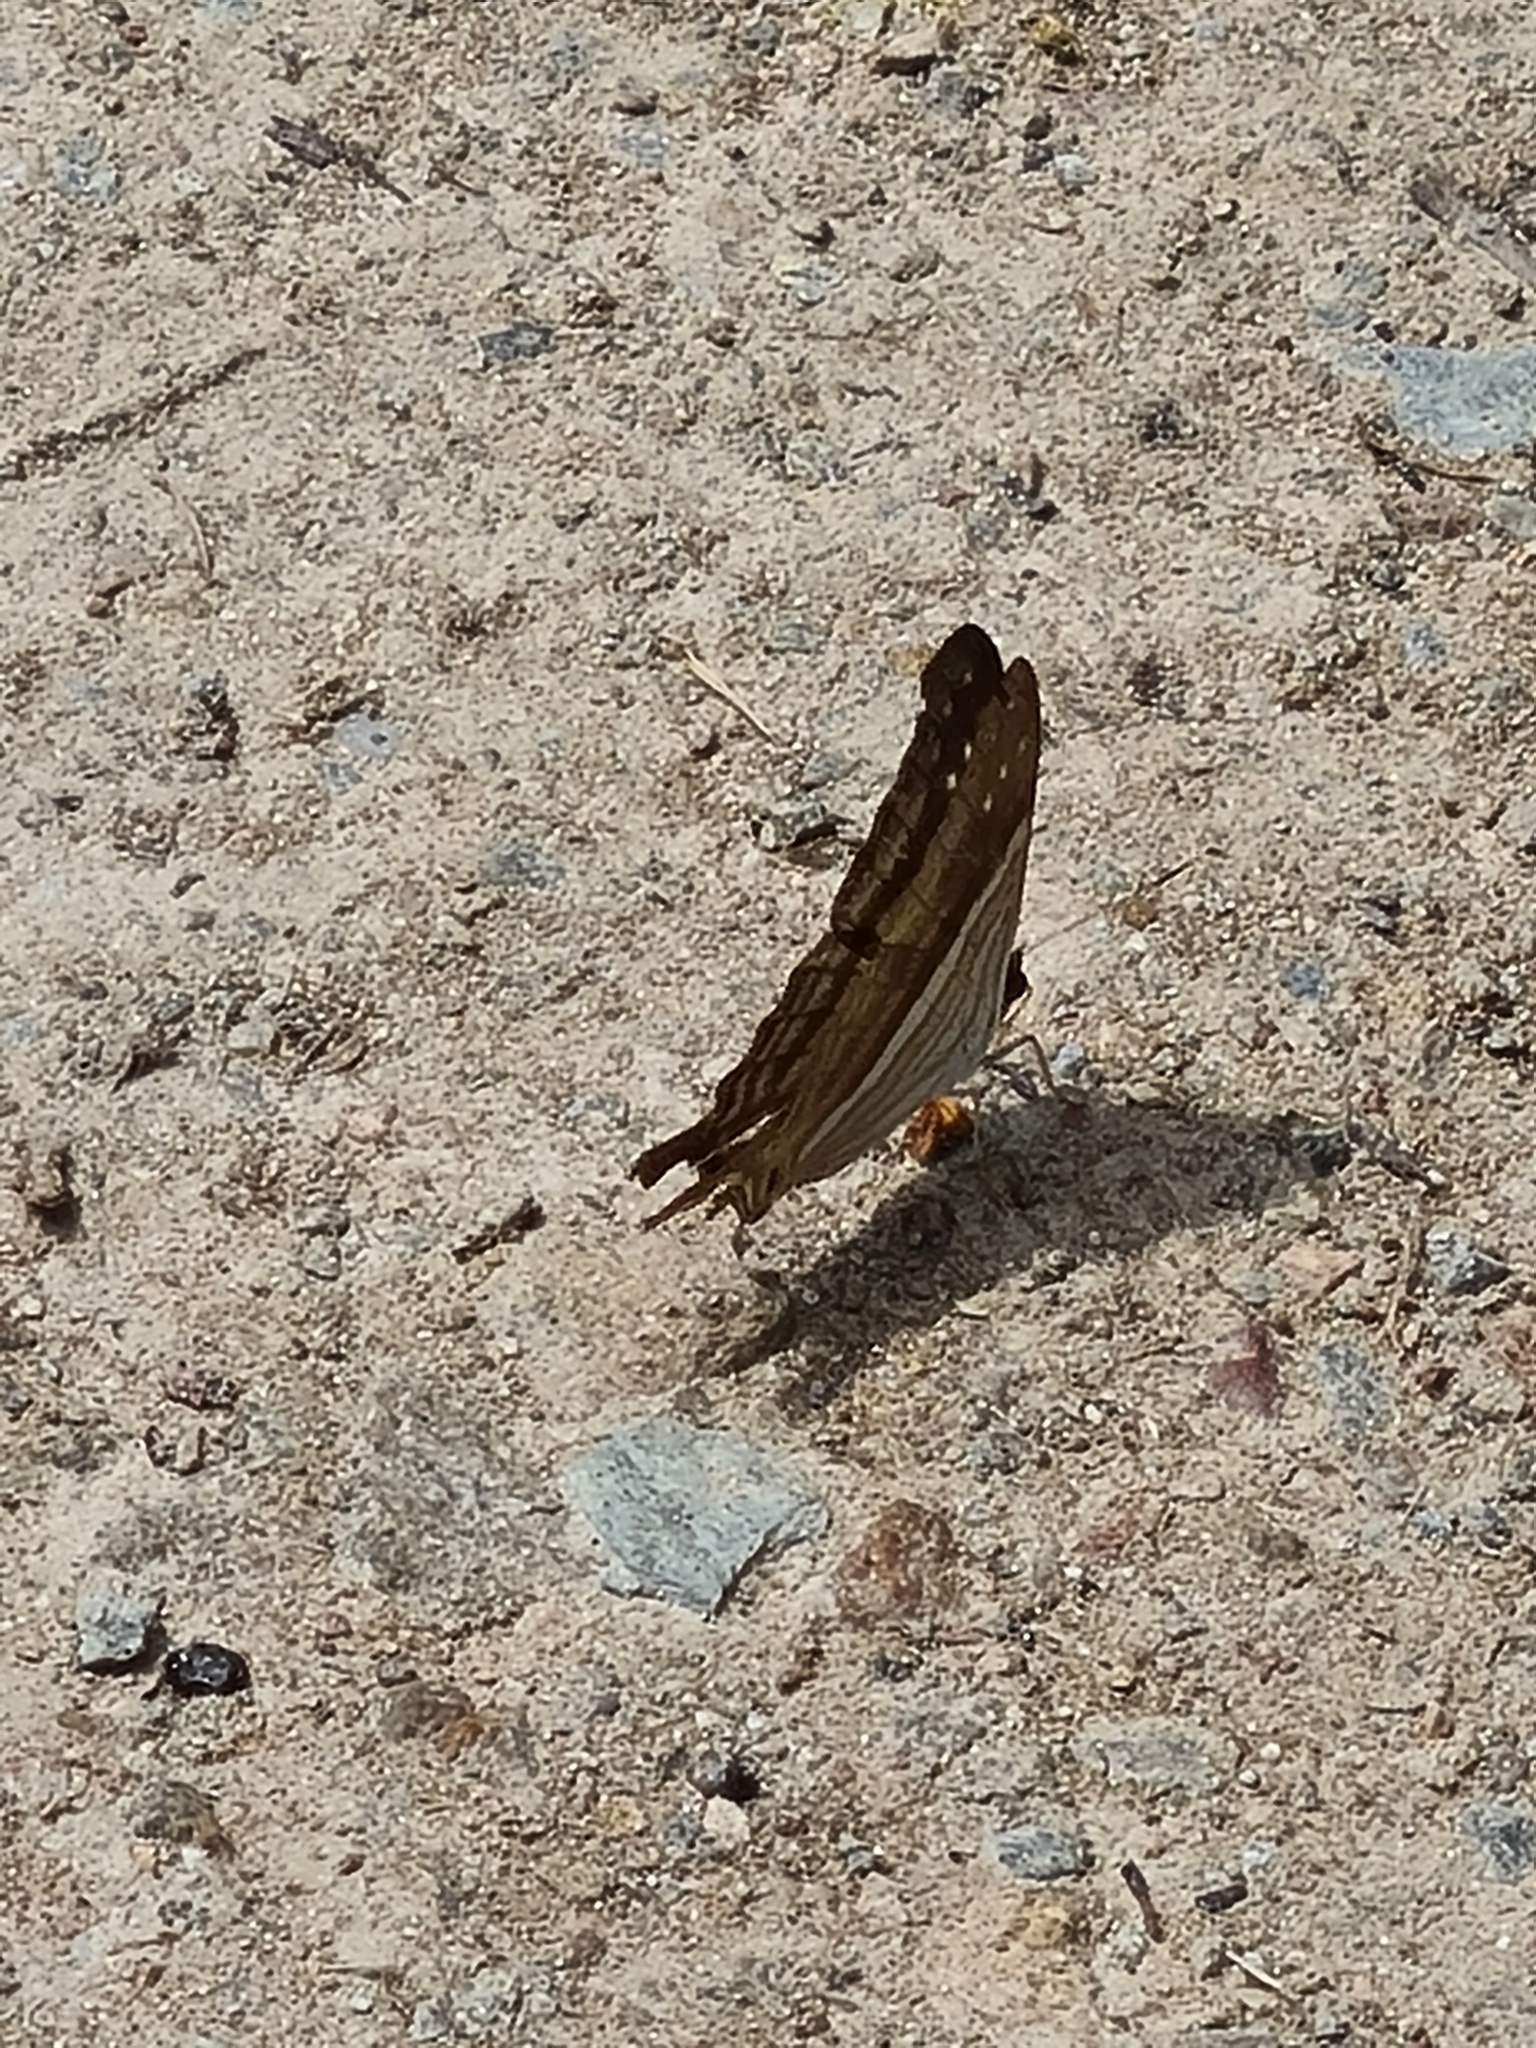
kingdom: Animalia
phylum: Arthropoda
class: Insecta
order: Lepidoptera
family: Nymphalidae
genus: Marpesia
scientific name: Marpesia chiron
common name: Many-banded daggerwing
